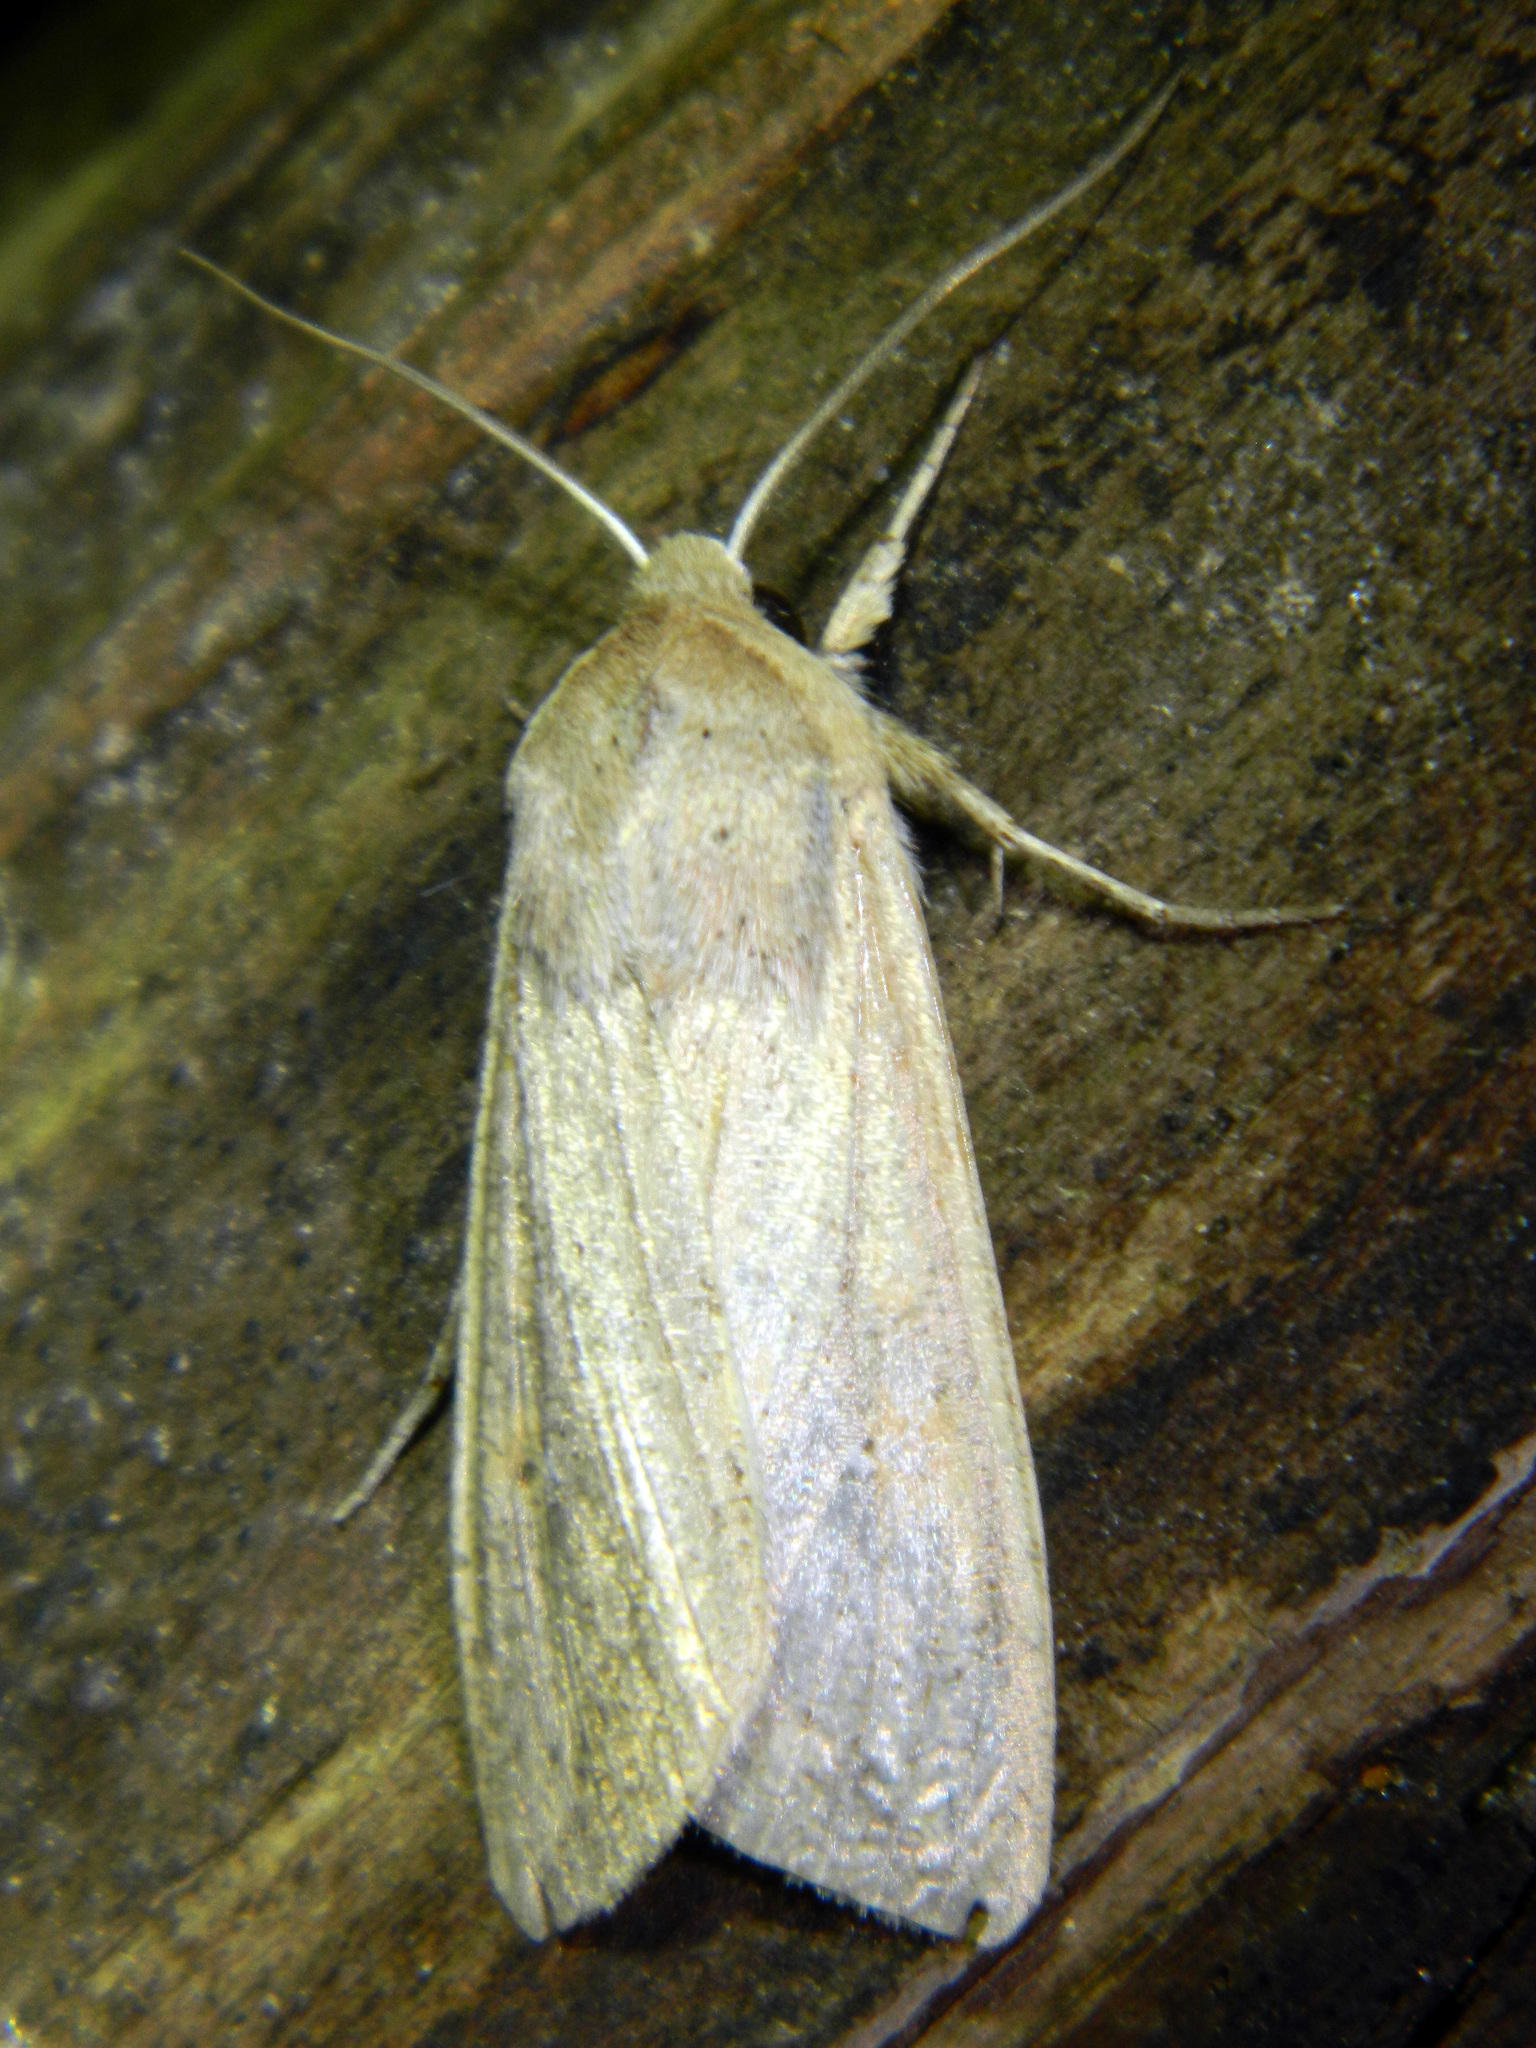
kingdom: Animalia
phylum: Arthropoda
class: Insecta
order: Lepidoptera
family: Noctuidae
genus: Mythimna
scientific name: Mythimna unipuncta
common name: White-speck
